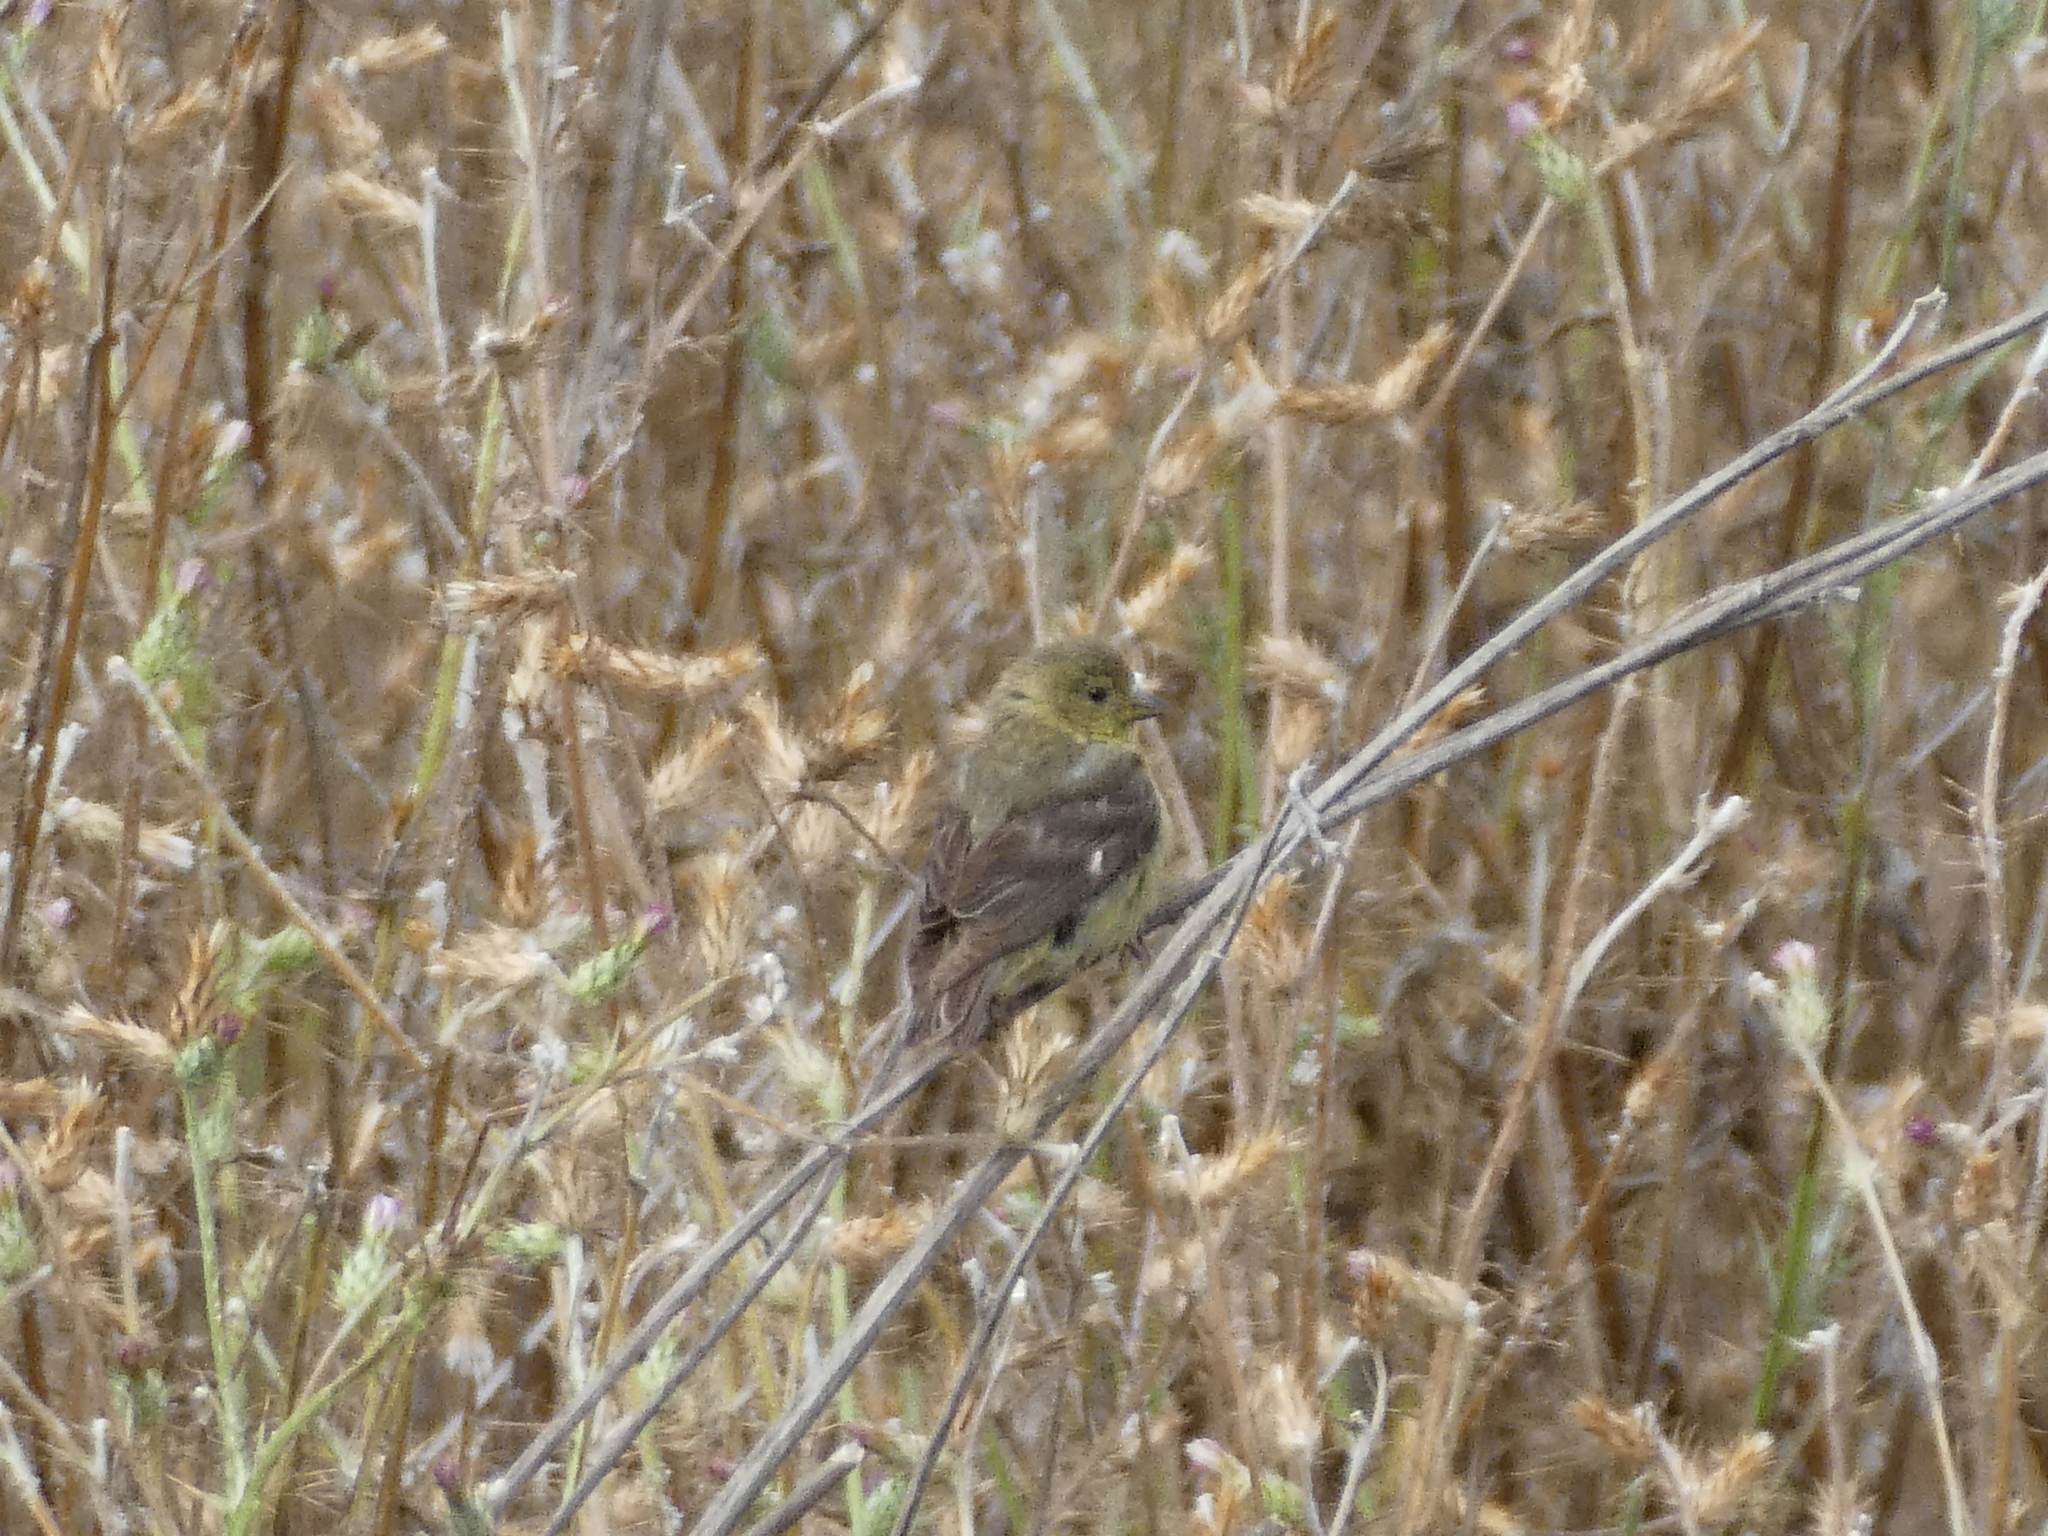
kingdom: Animalia
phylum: Chordata
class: Aves
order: Passeriformes
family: Fringillidae
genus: Spinus
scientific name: Spinus psaltria
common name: Lesser goldfinch
